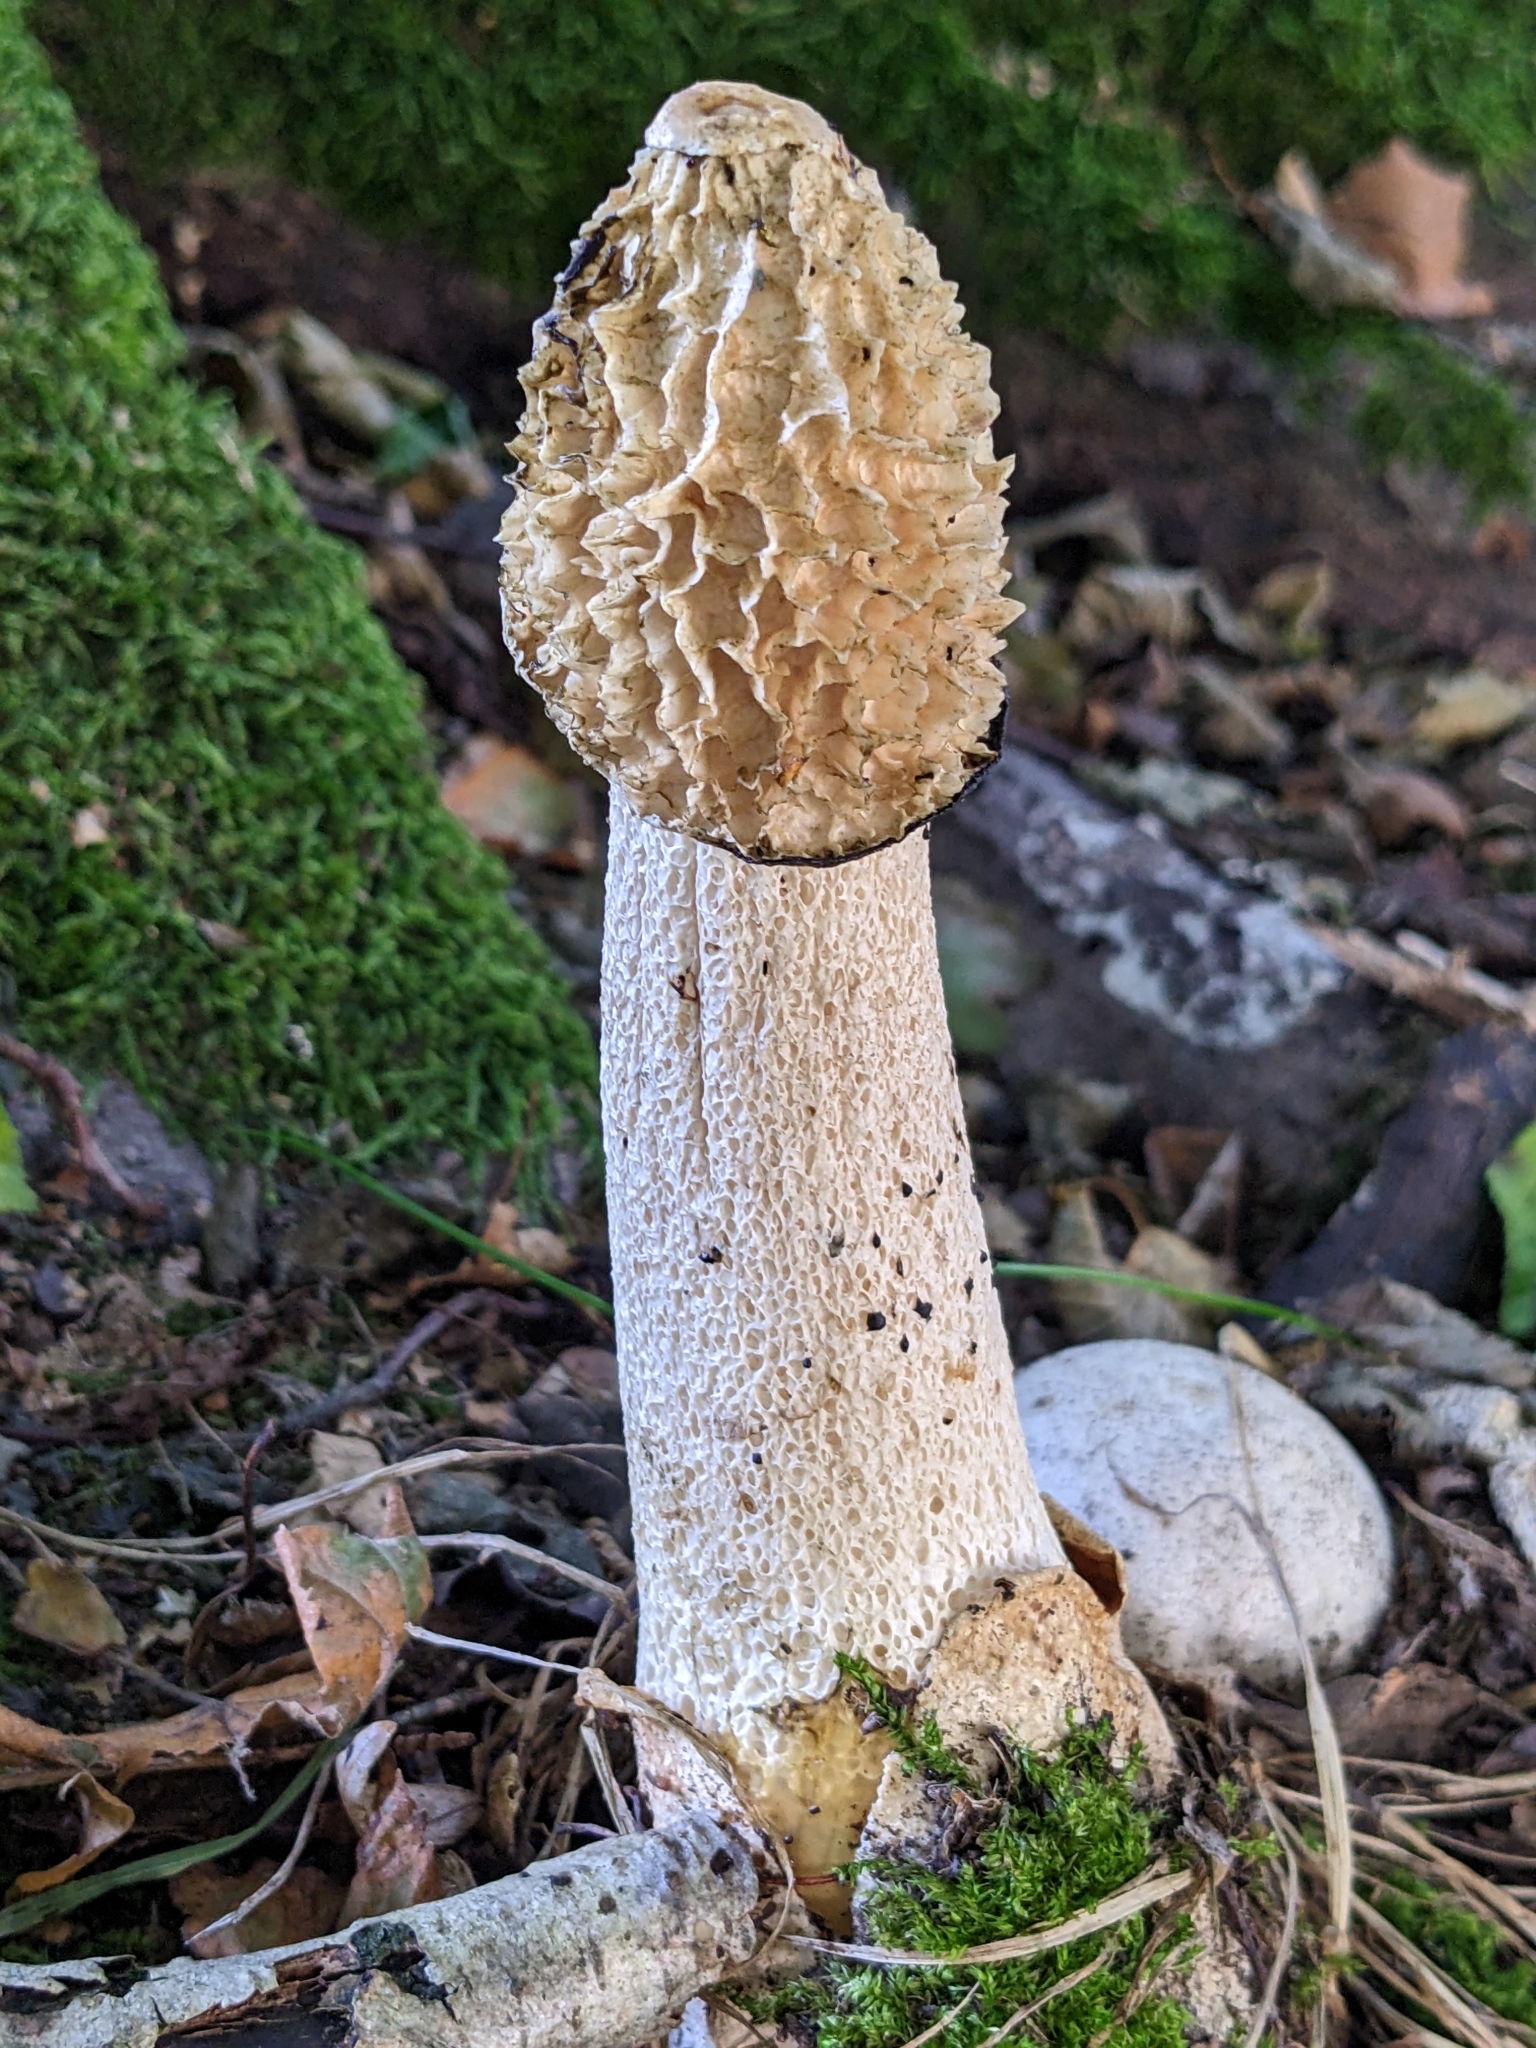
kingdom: Fungi
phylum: Basidiomycota
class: Agaricomycetes
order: Phallales
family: Phallaceae
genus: Phallus
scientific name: Phallus impudicus
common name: Common stinkhorn
